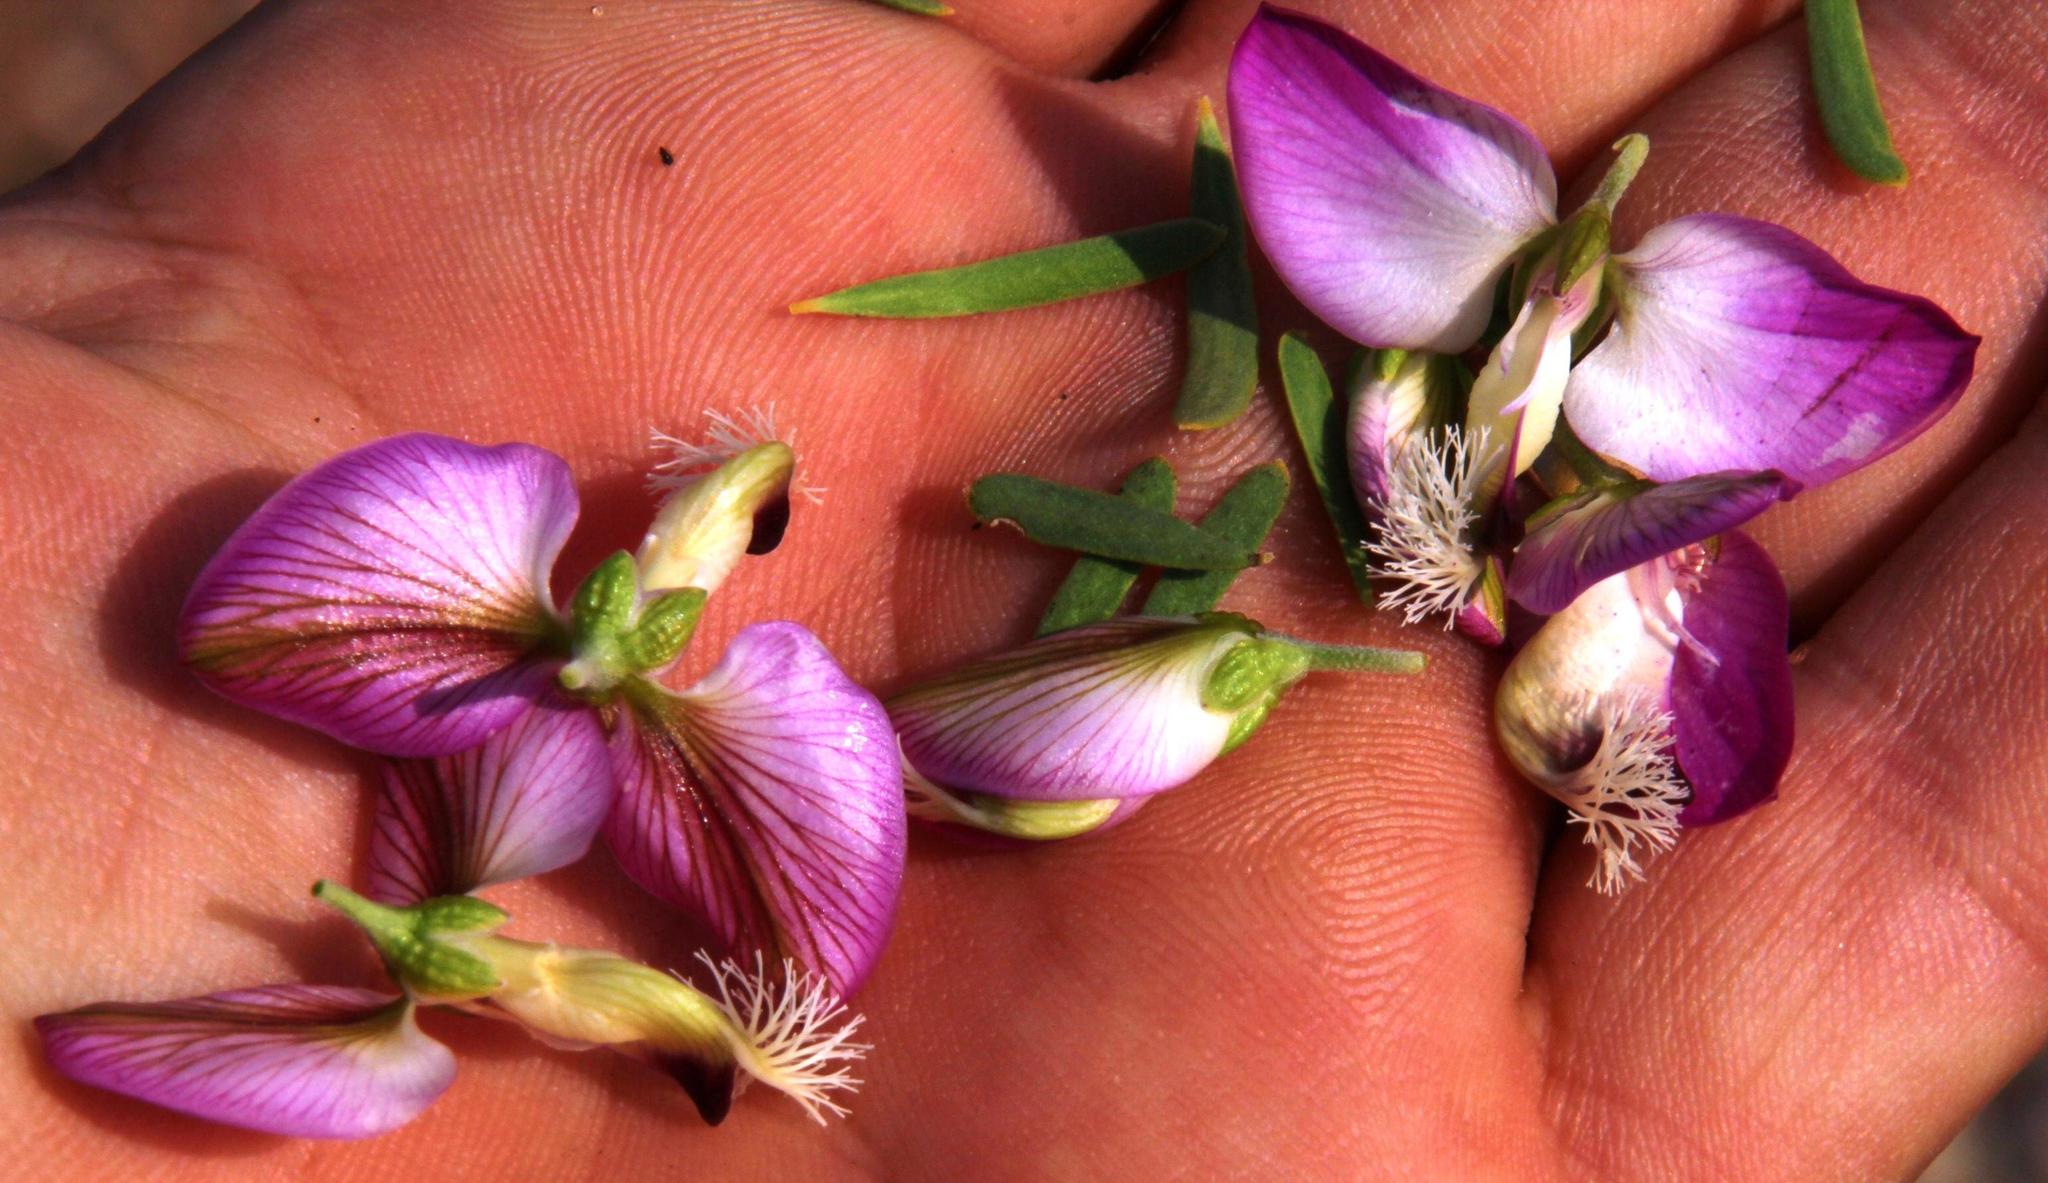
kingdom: Plantae
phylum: Tracheophyta
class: Magnoliopsida
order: Fabales
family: Polygalaceae
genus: Polygala
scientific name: Polygala myrtifolia
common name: Myrtle-leaf milkwort
